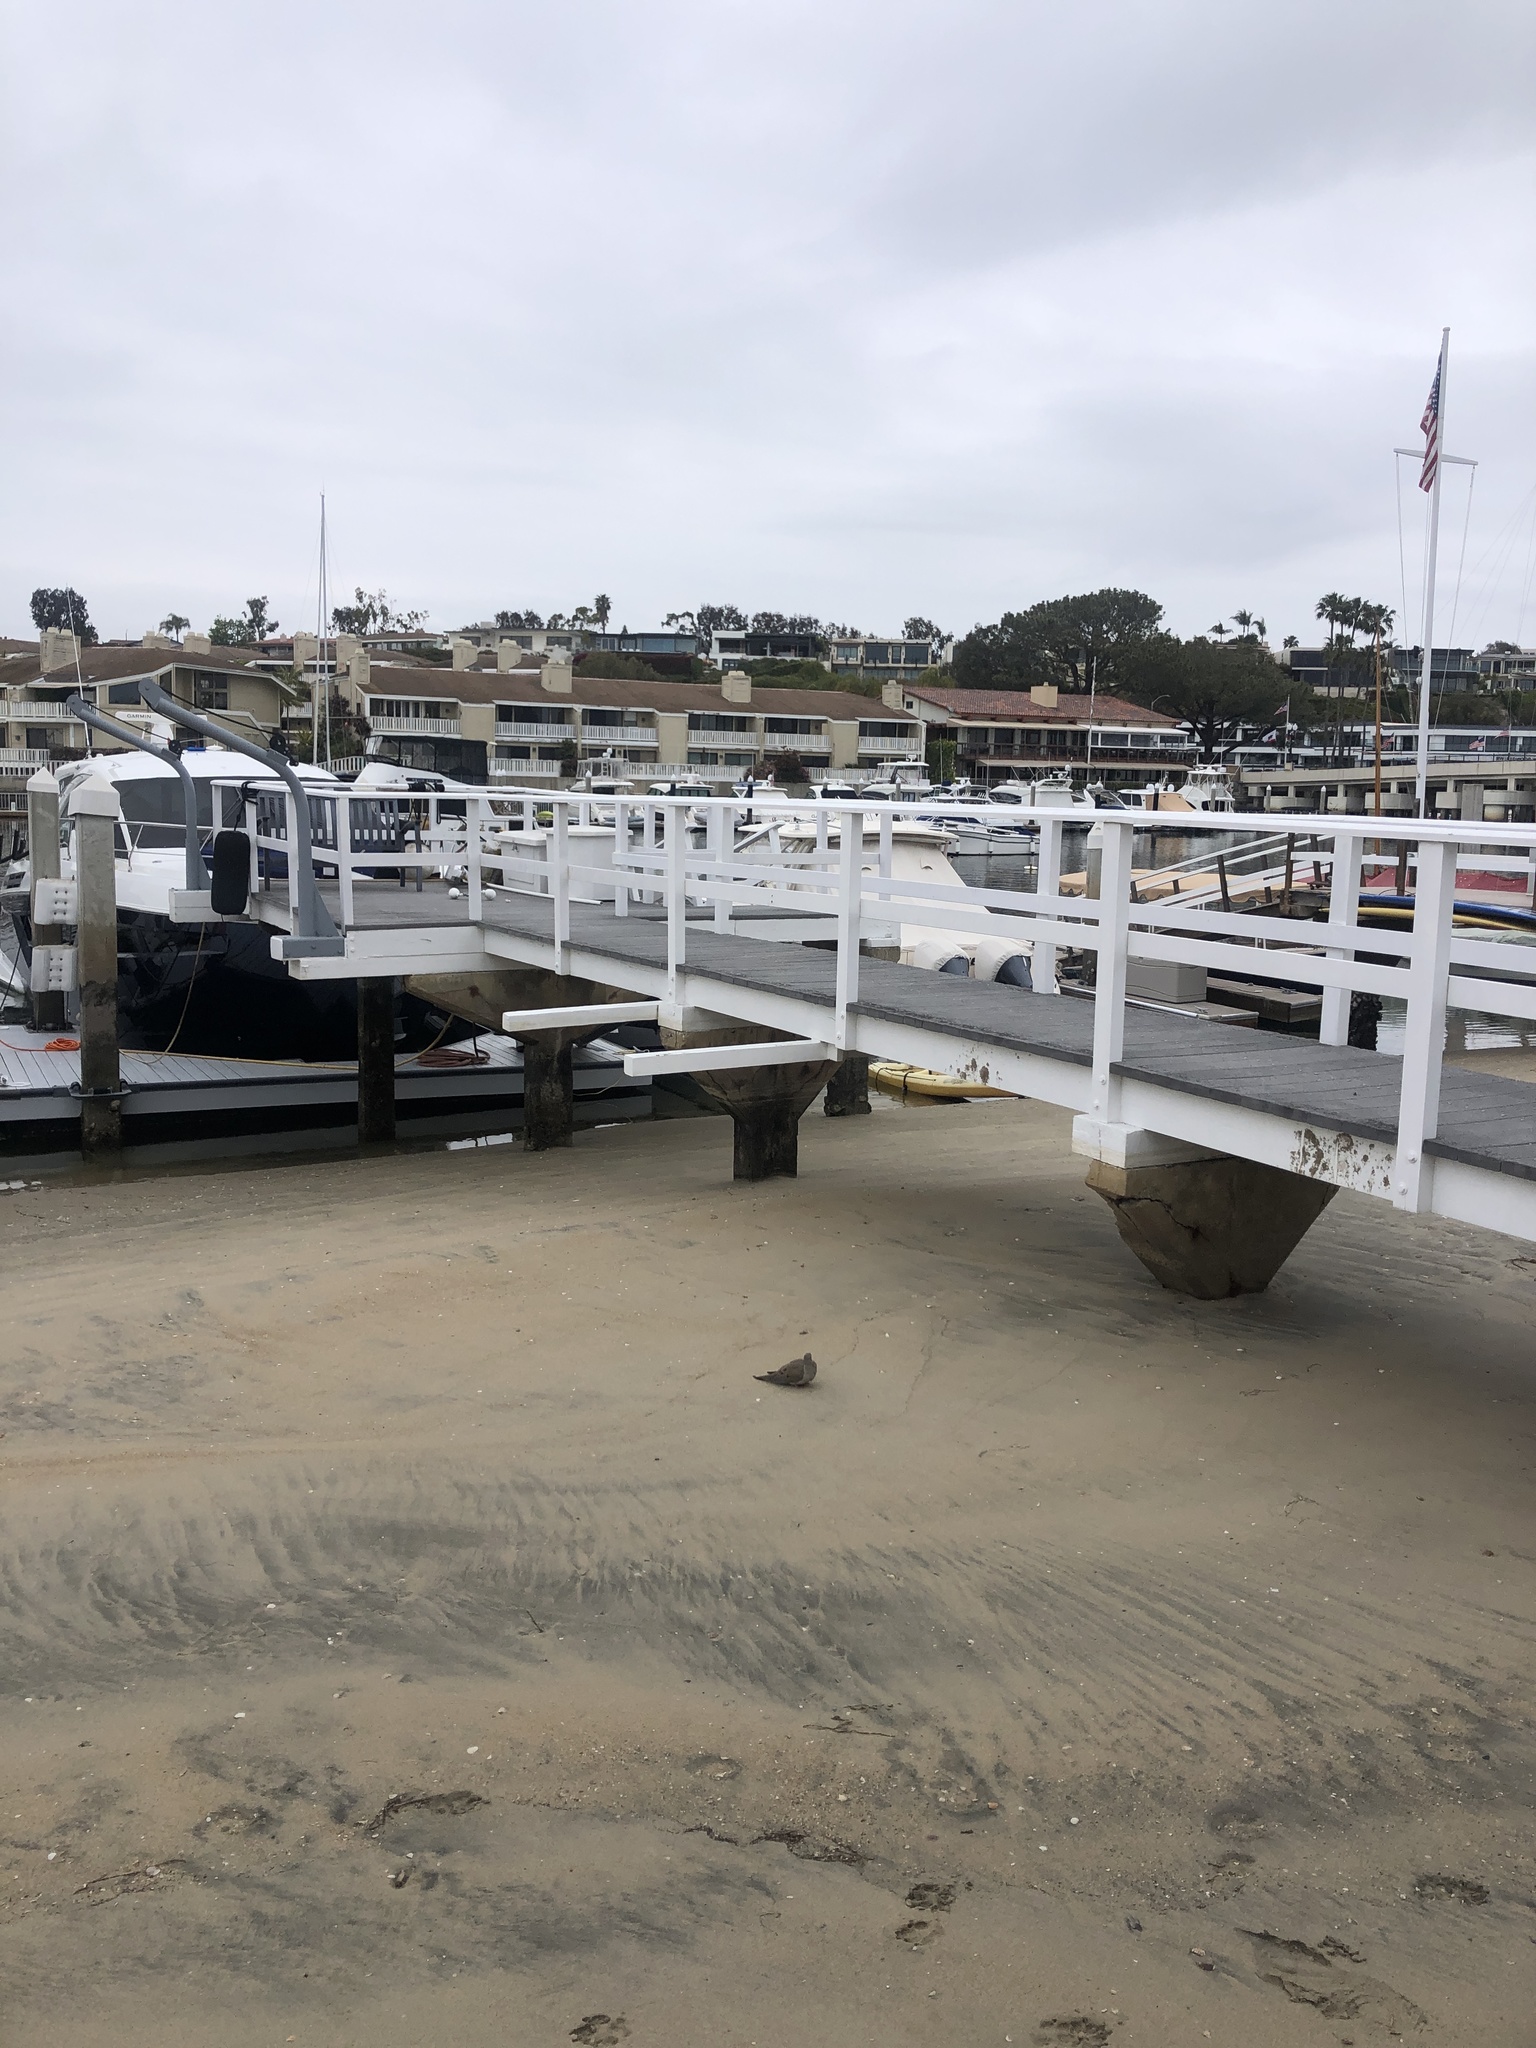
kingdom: Animalia
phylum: Chordata
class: Aves
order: Columbiformes
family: Columbidae
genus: Zenaida
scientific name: Zenaida macroura
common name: Mourning dove
